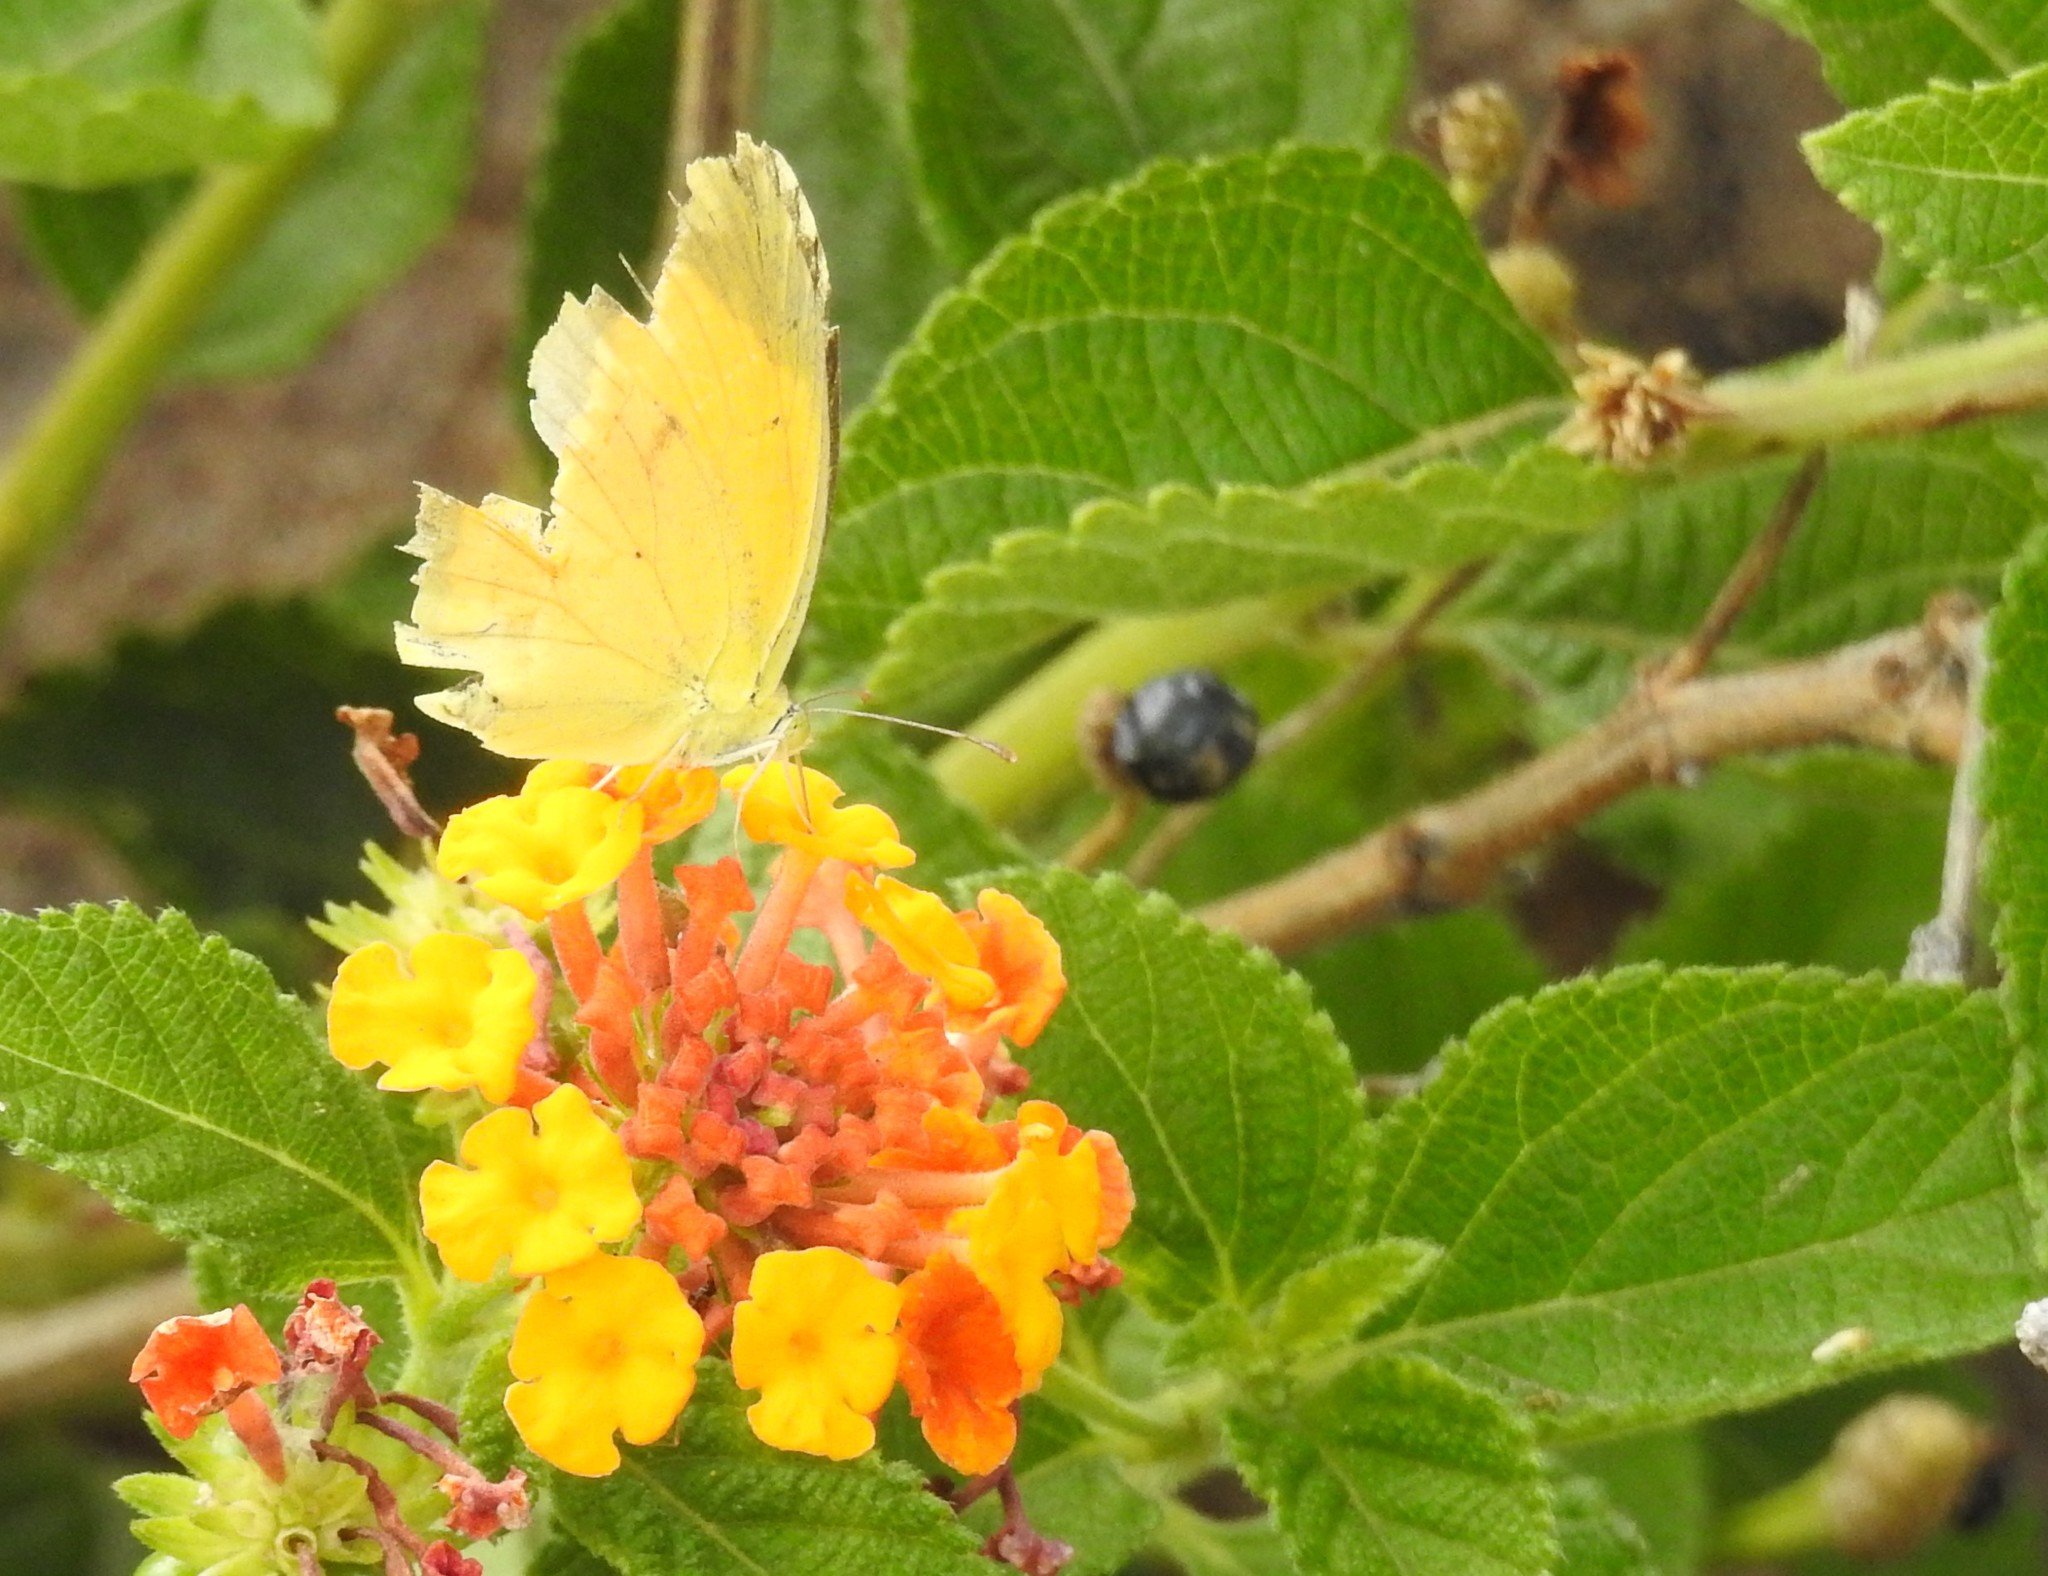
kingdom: Animalia
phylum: Arthropoda
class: Insecta
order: Lepidoptera
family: Pieridae
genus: Abaeis
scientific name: Abaeis nicippe
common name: Sleepy orange
